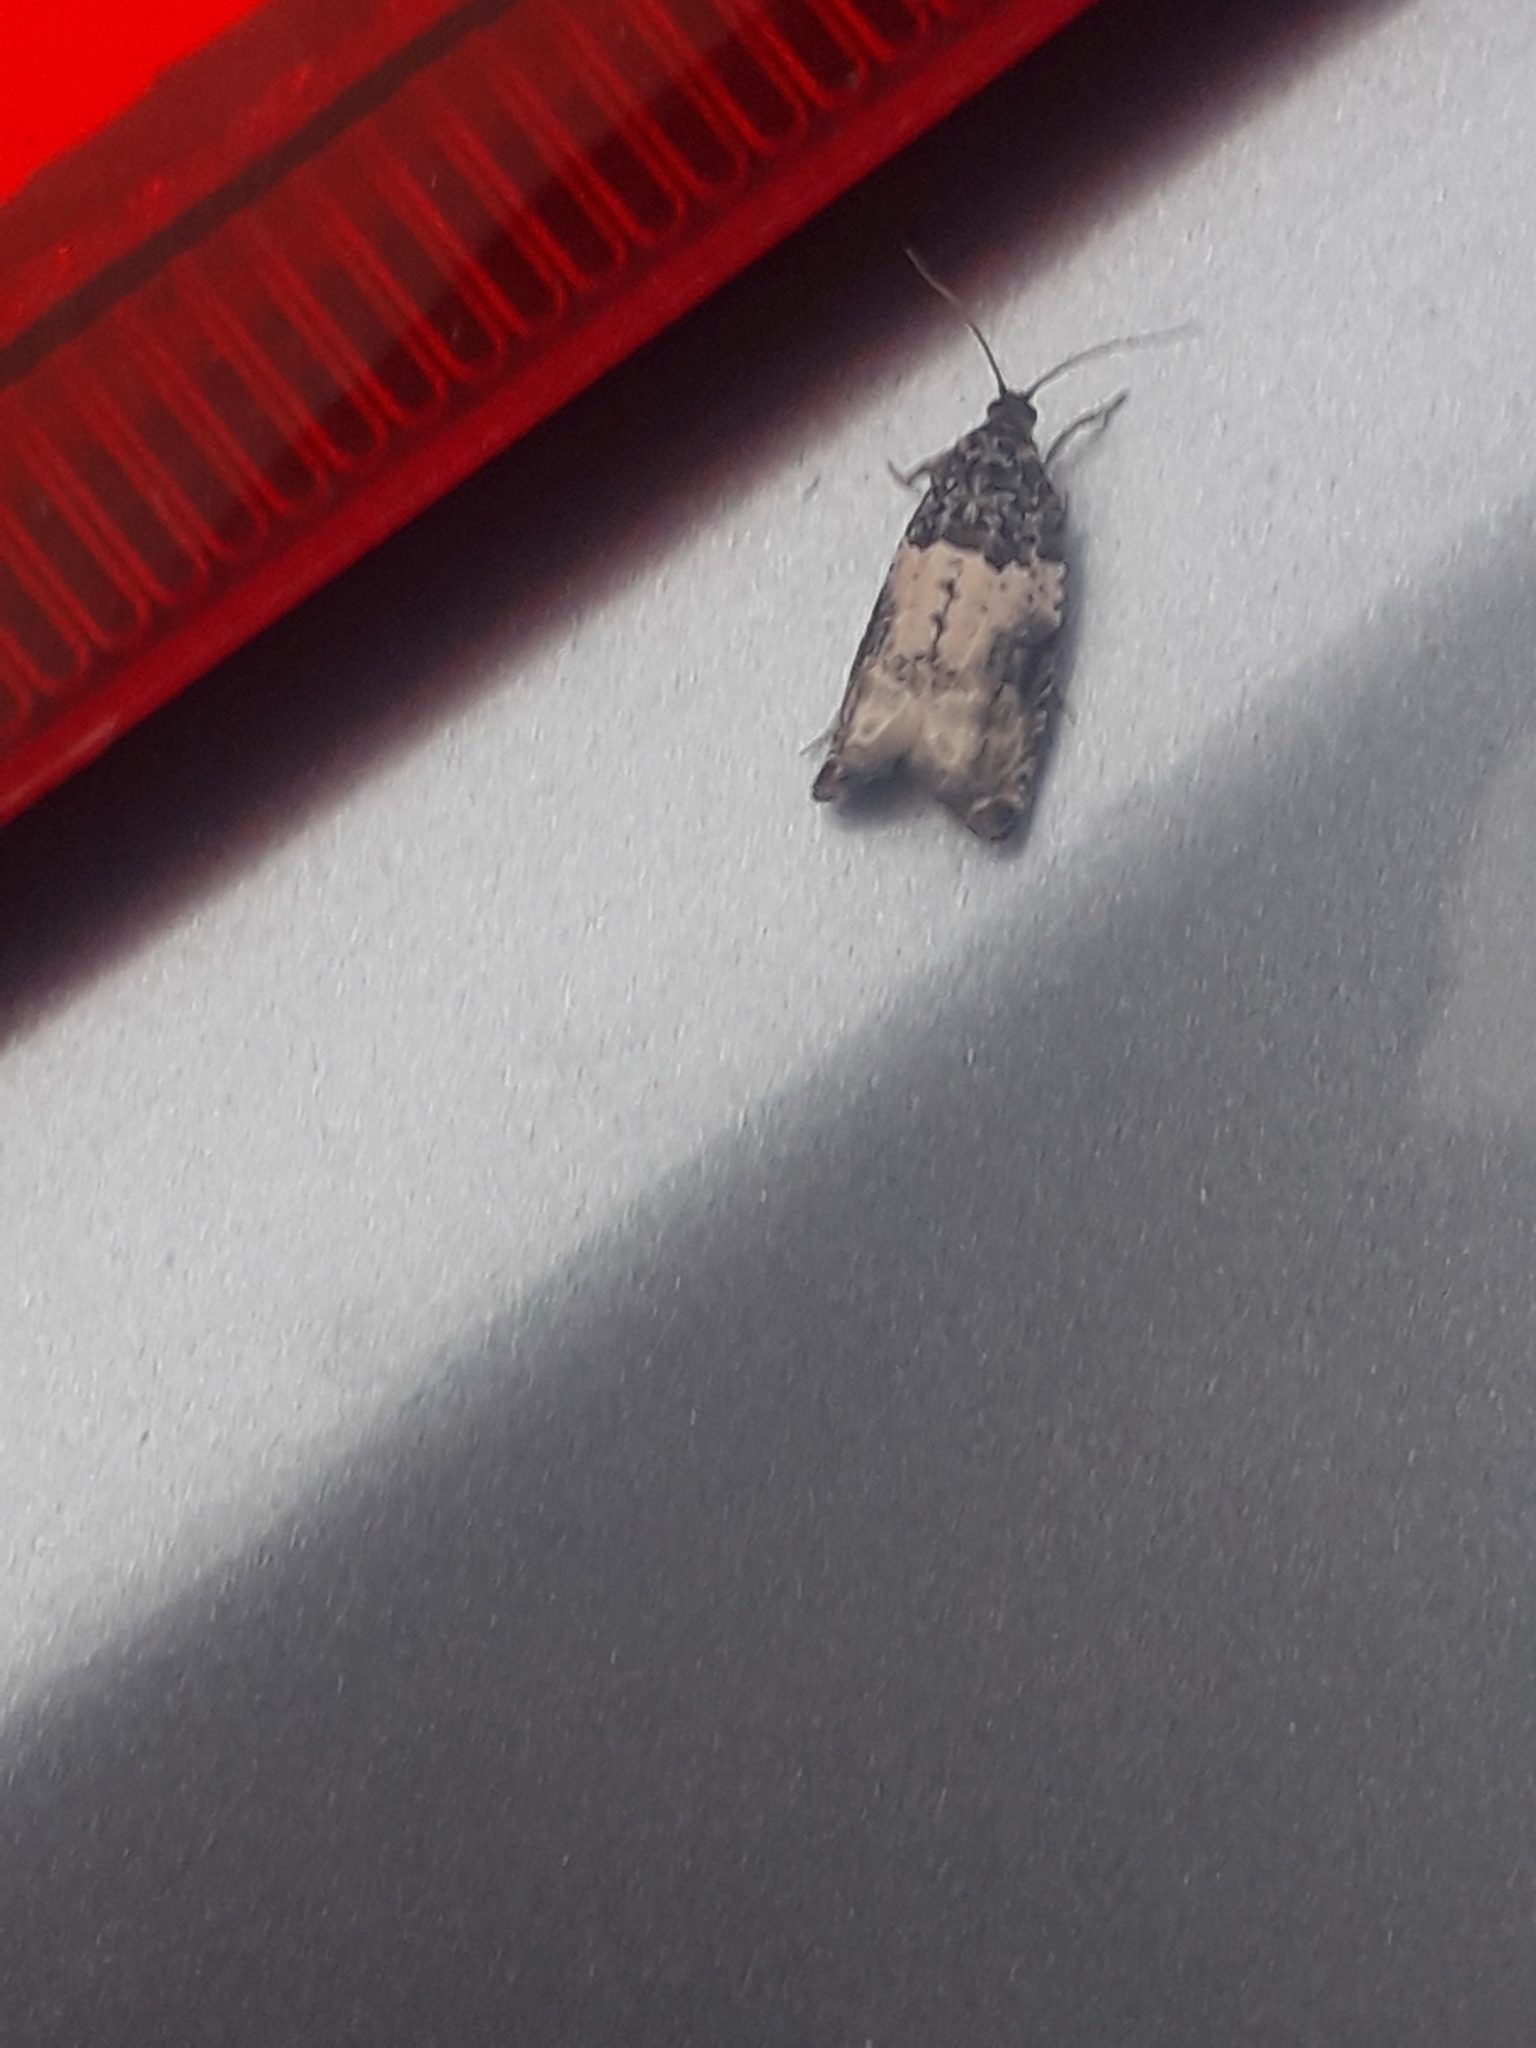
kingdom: Animalia
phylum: Arthropoda
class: Insecta
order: Lepidoptera
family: Tortricidae
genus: Gypsonoma
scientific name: Gypsonoma sociana
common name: White cloaked shoot
